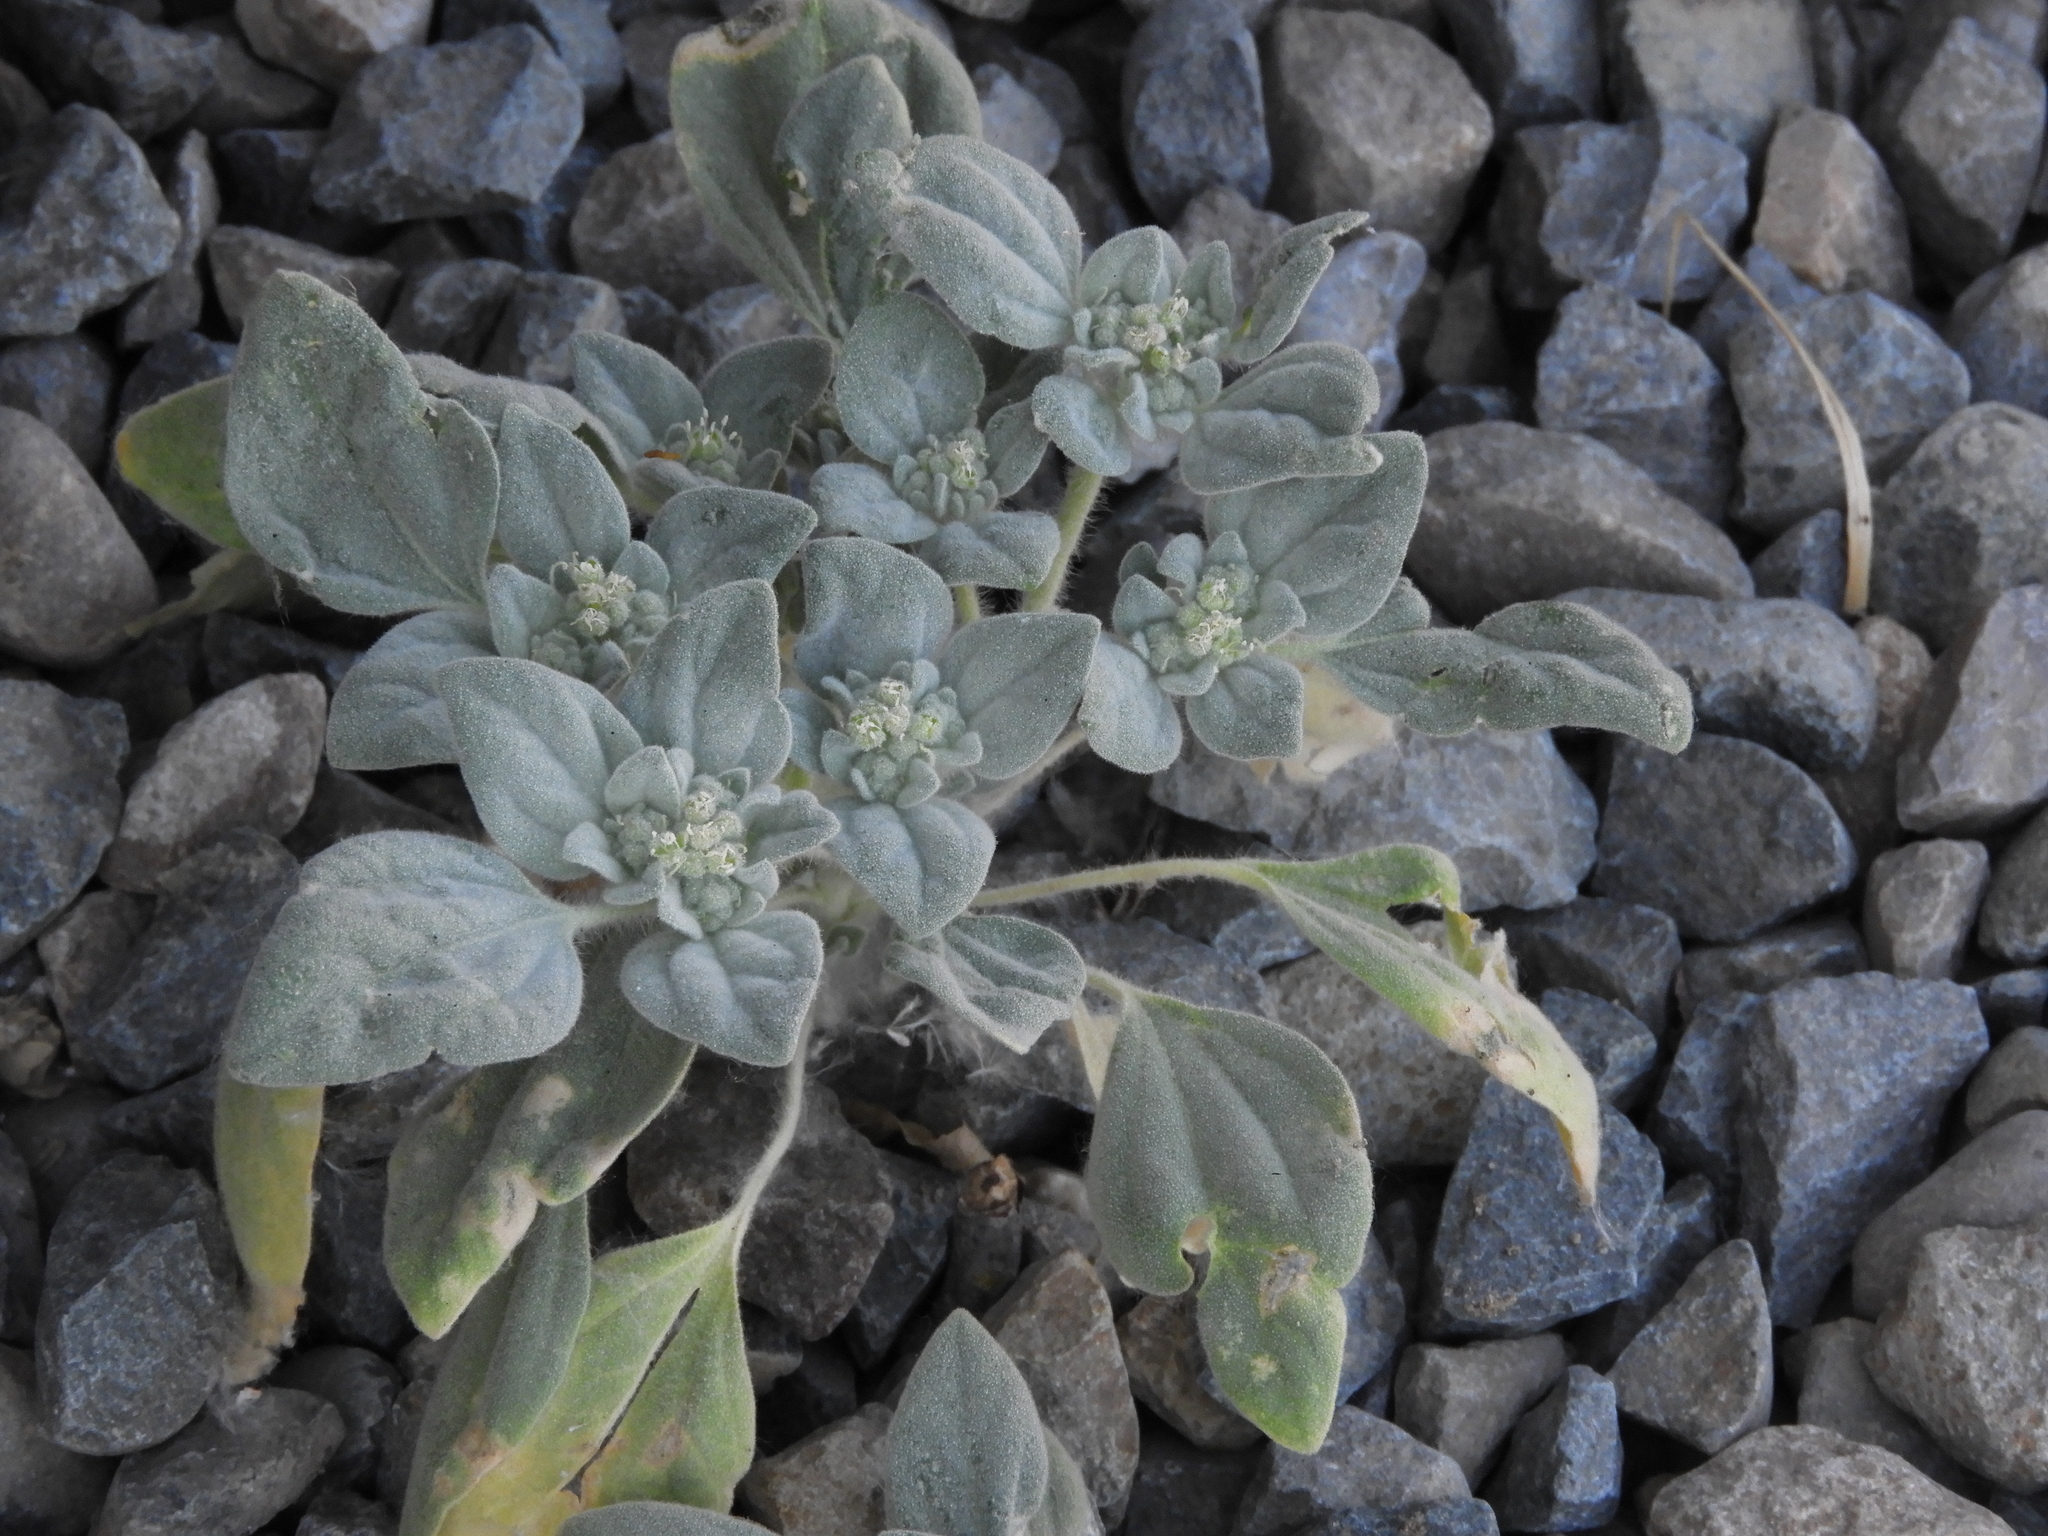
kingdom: Plantae
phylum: Tracheophyta
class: Magnoliopsida
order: Malpighiales
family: Euphorbiaceae
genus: Croton
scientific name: Croton setiger
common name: Dove weed
